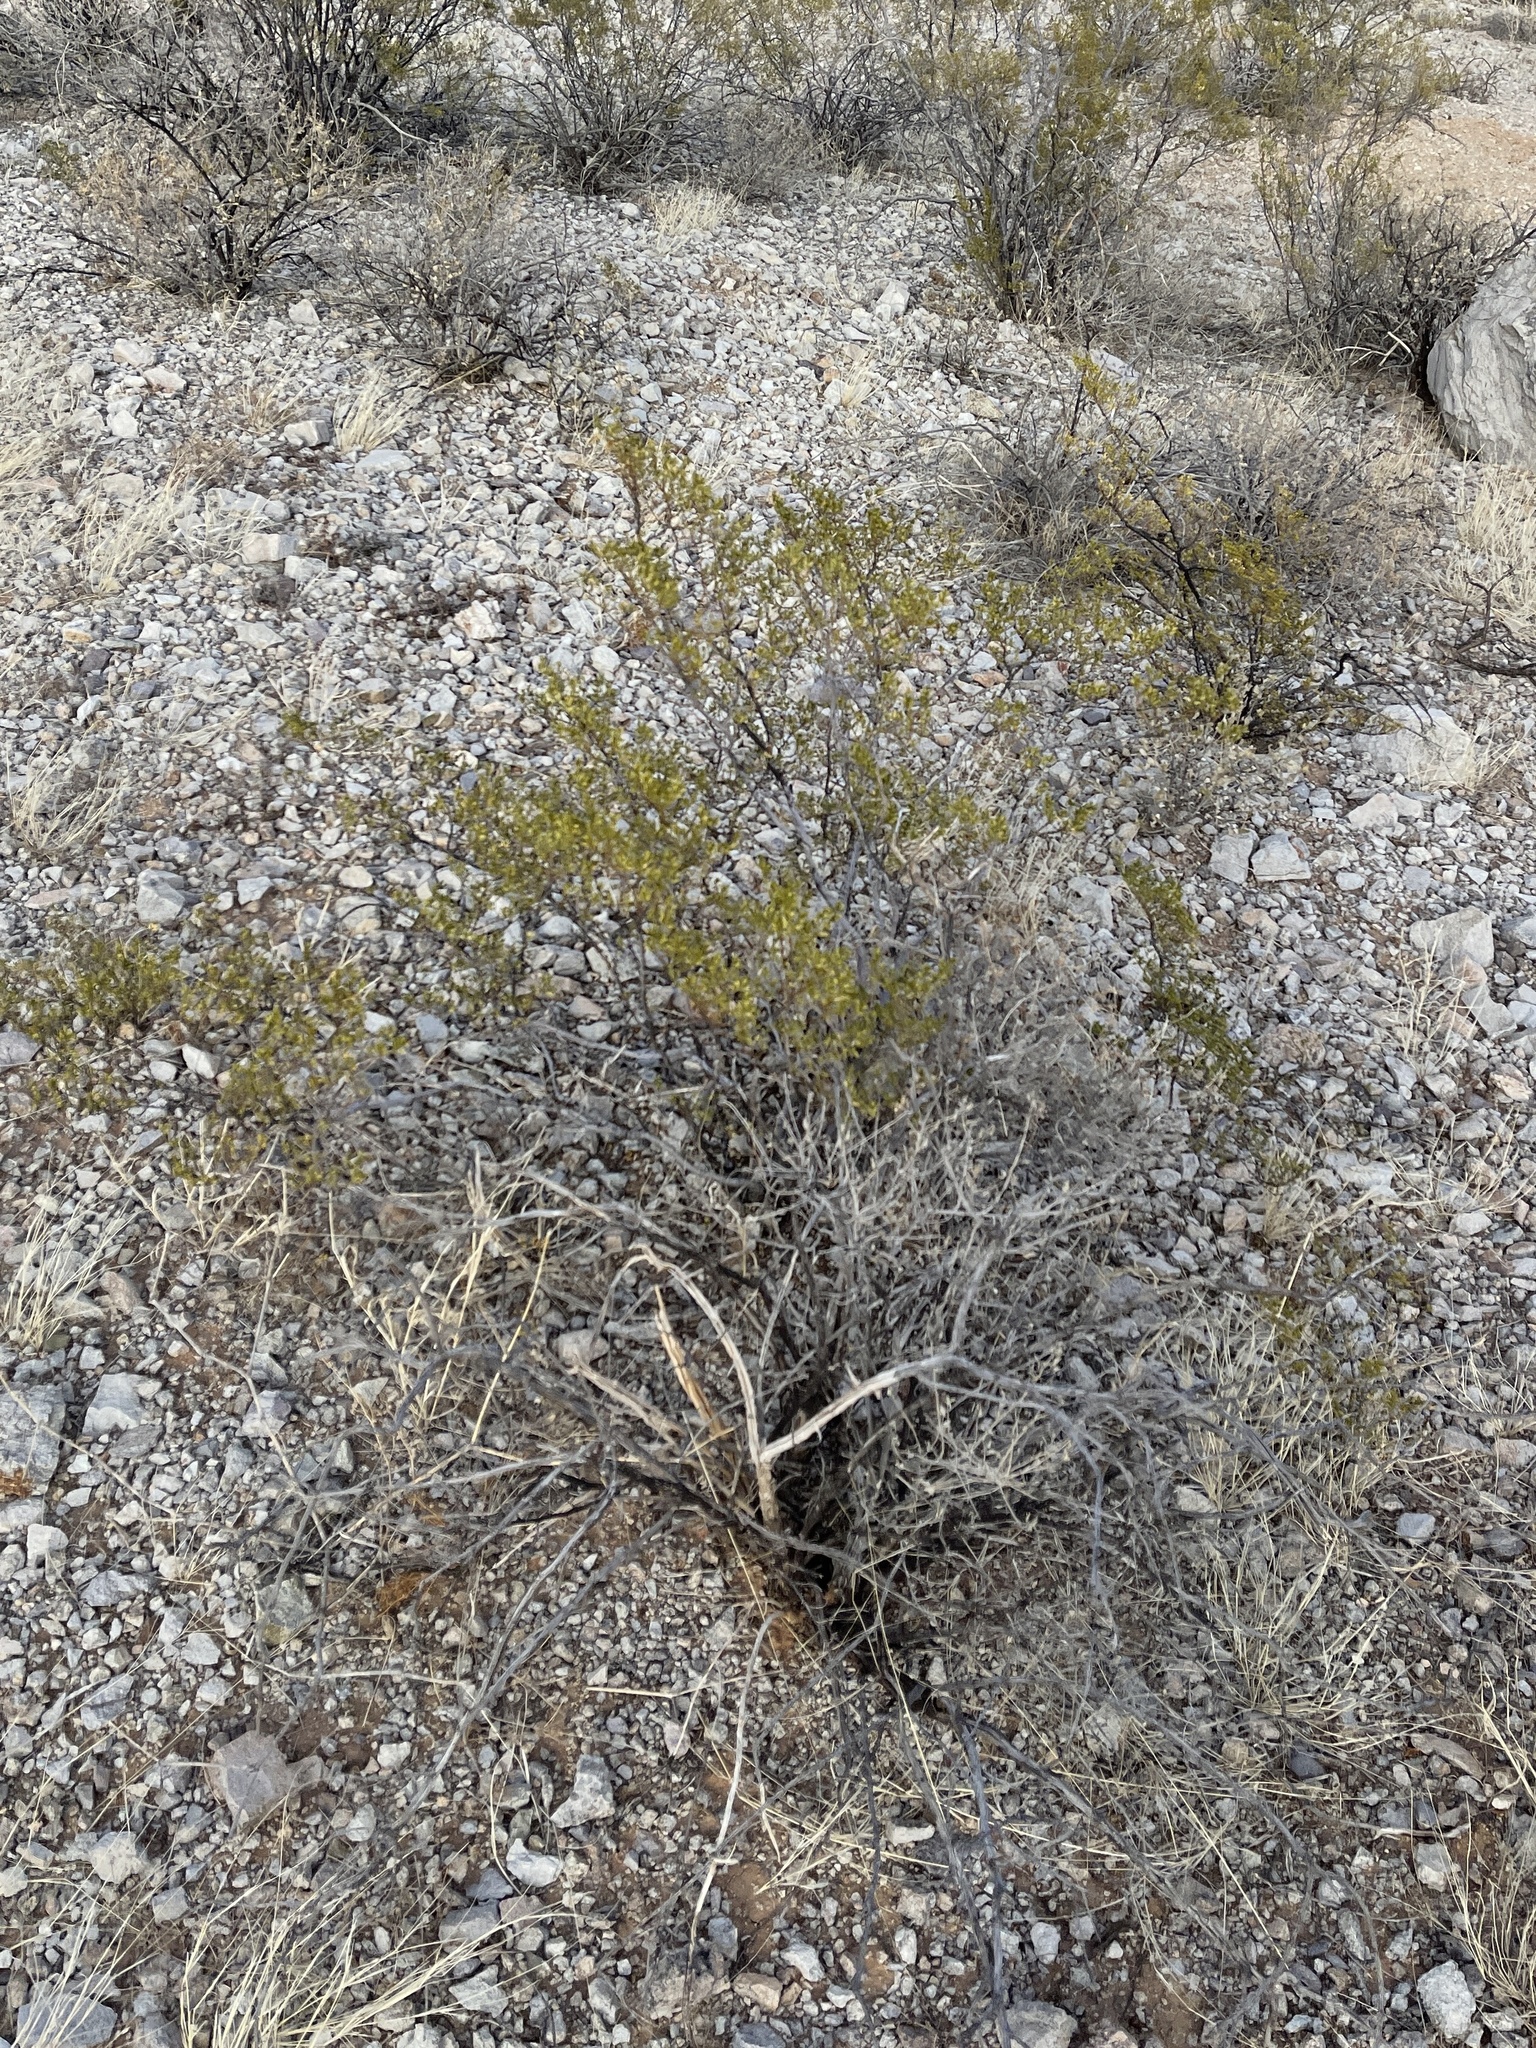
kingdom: Plantae
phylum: Tracheophyta
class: Magnoliopsida
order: Zygophyllales
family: Zygophyllaceae
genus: Larrea
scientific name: Larrea tridentata
